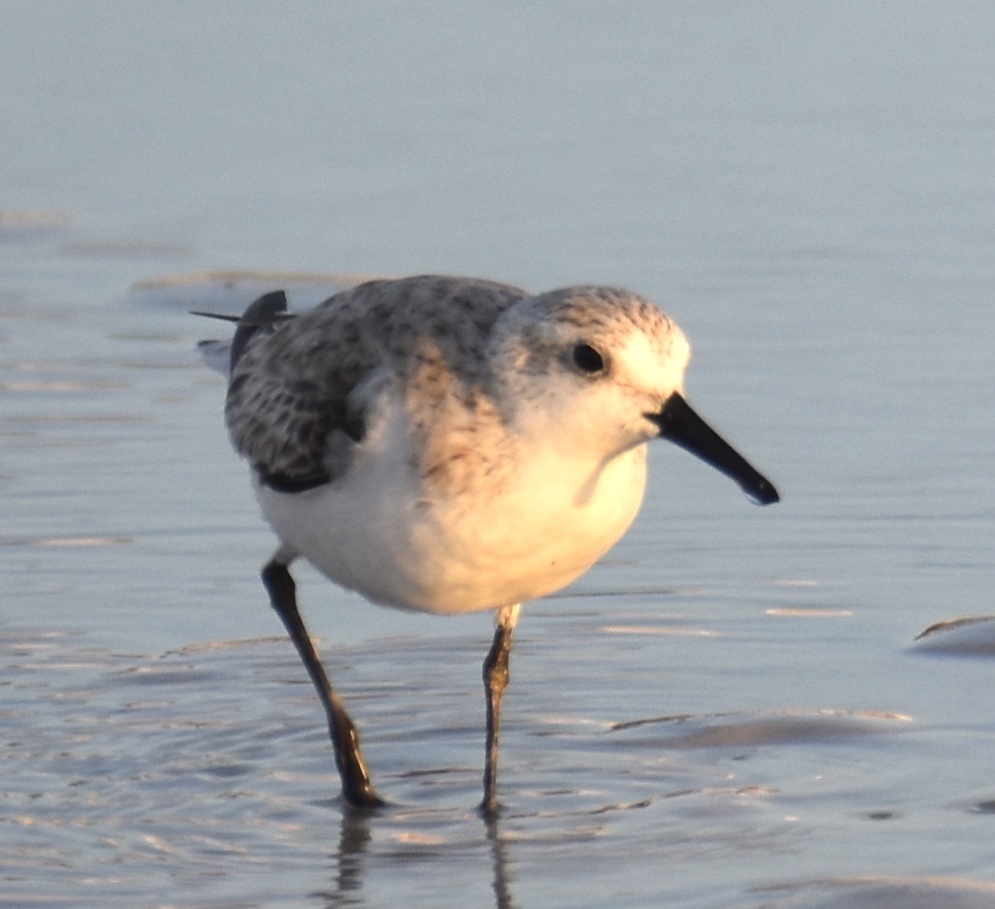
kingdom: Animalia
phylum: Chordata
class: Aves
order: Charadriiformes
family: Scolopacidae
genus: Calidris
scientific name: Calidris alba
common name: Sanderling
